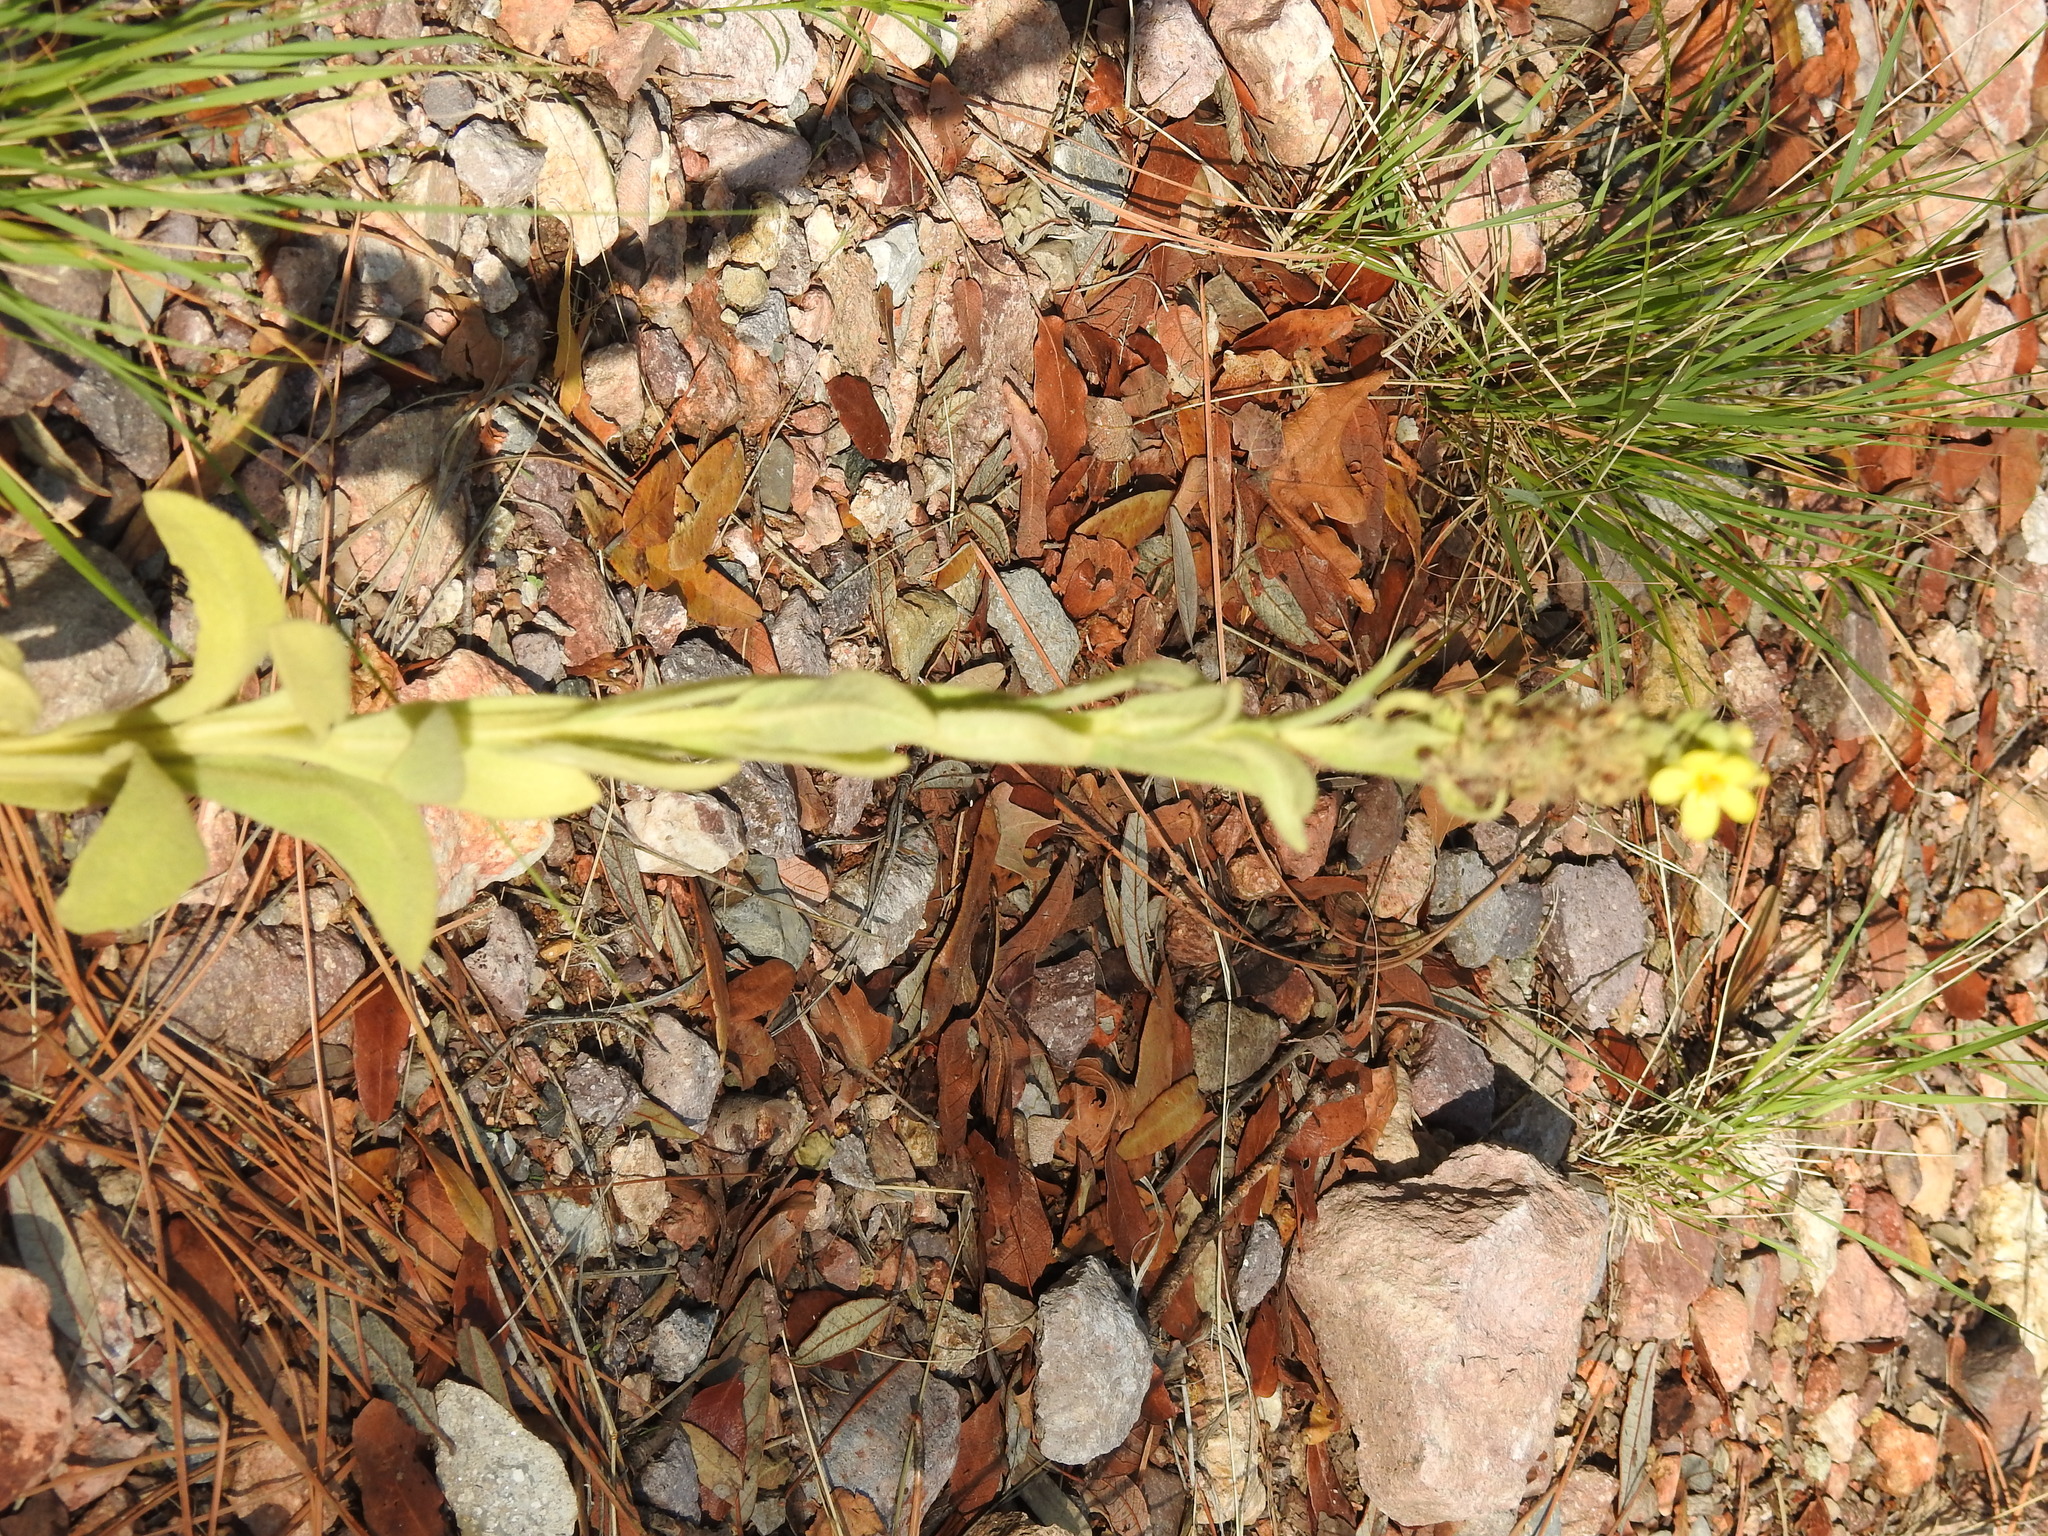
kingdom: Plantae
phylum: Tracheophyta
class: Magnoliopsida
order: Lamiales
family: Scrophulariaceae
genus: Verbascum
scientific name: Verbascum thapsus
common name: Common mullein
